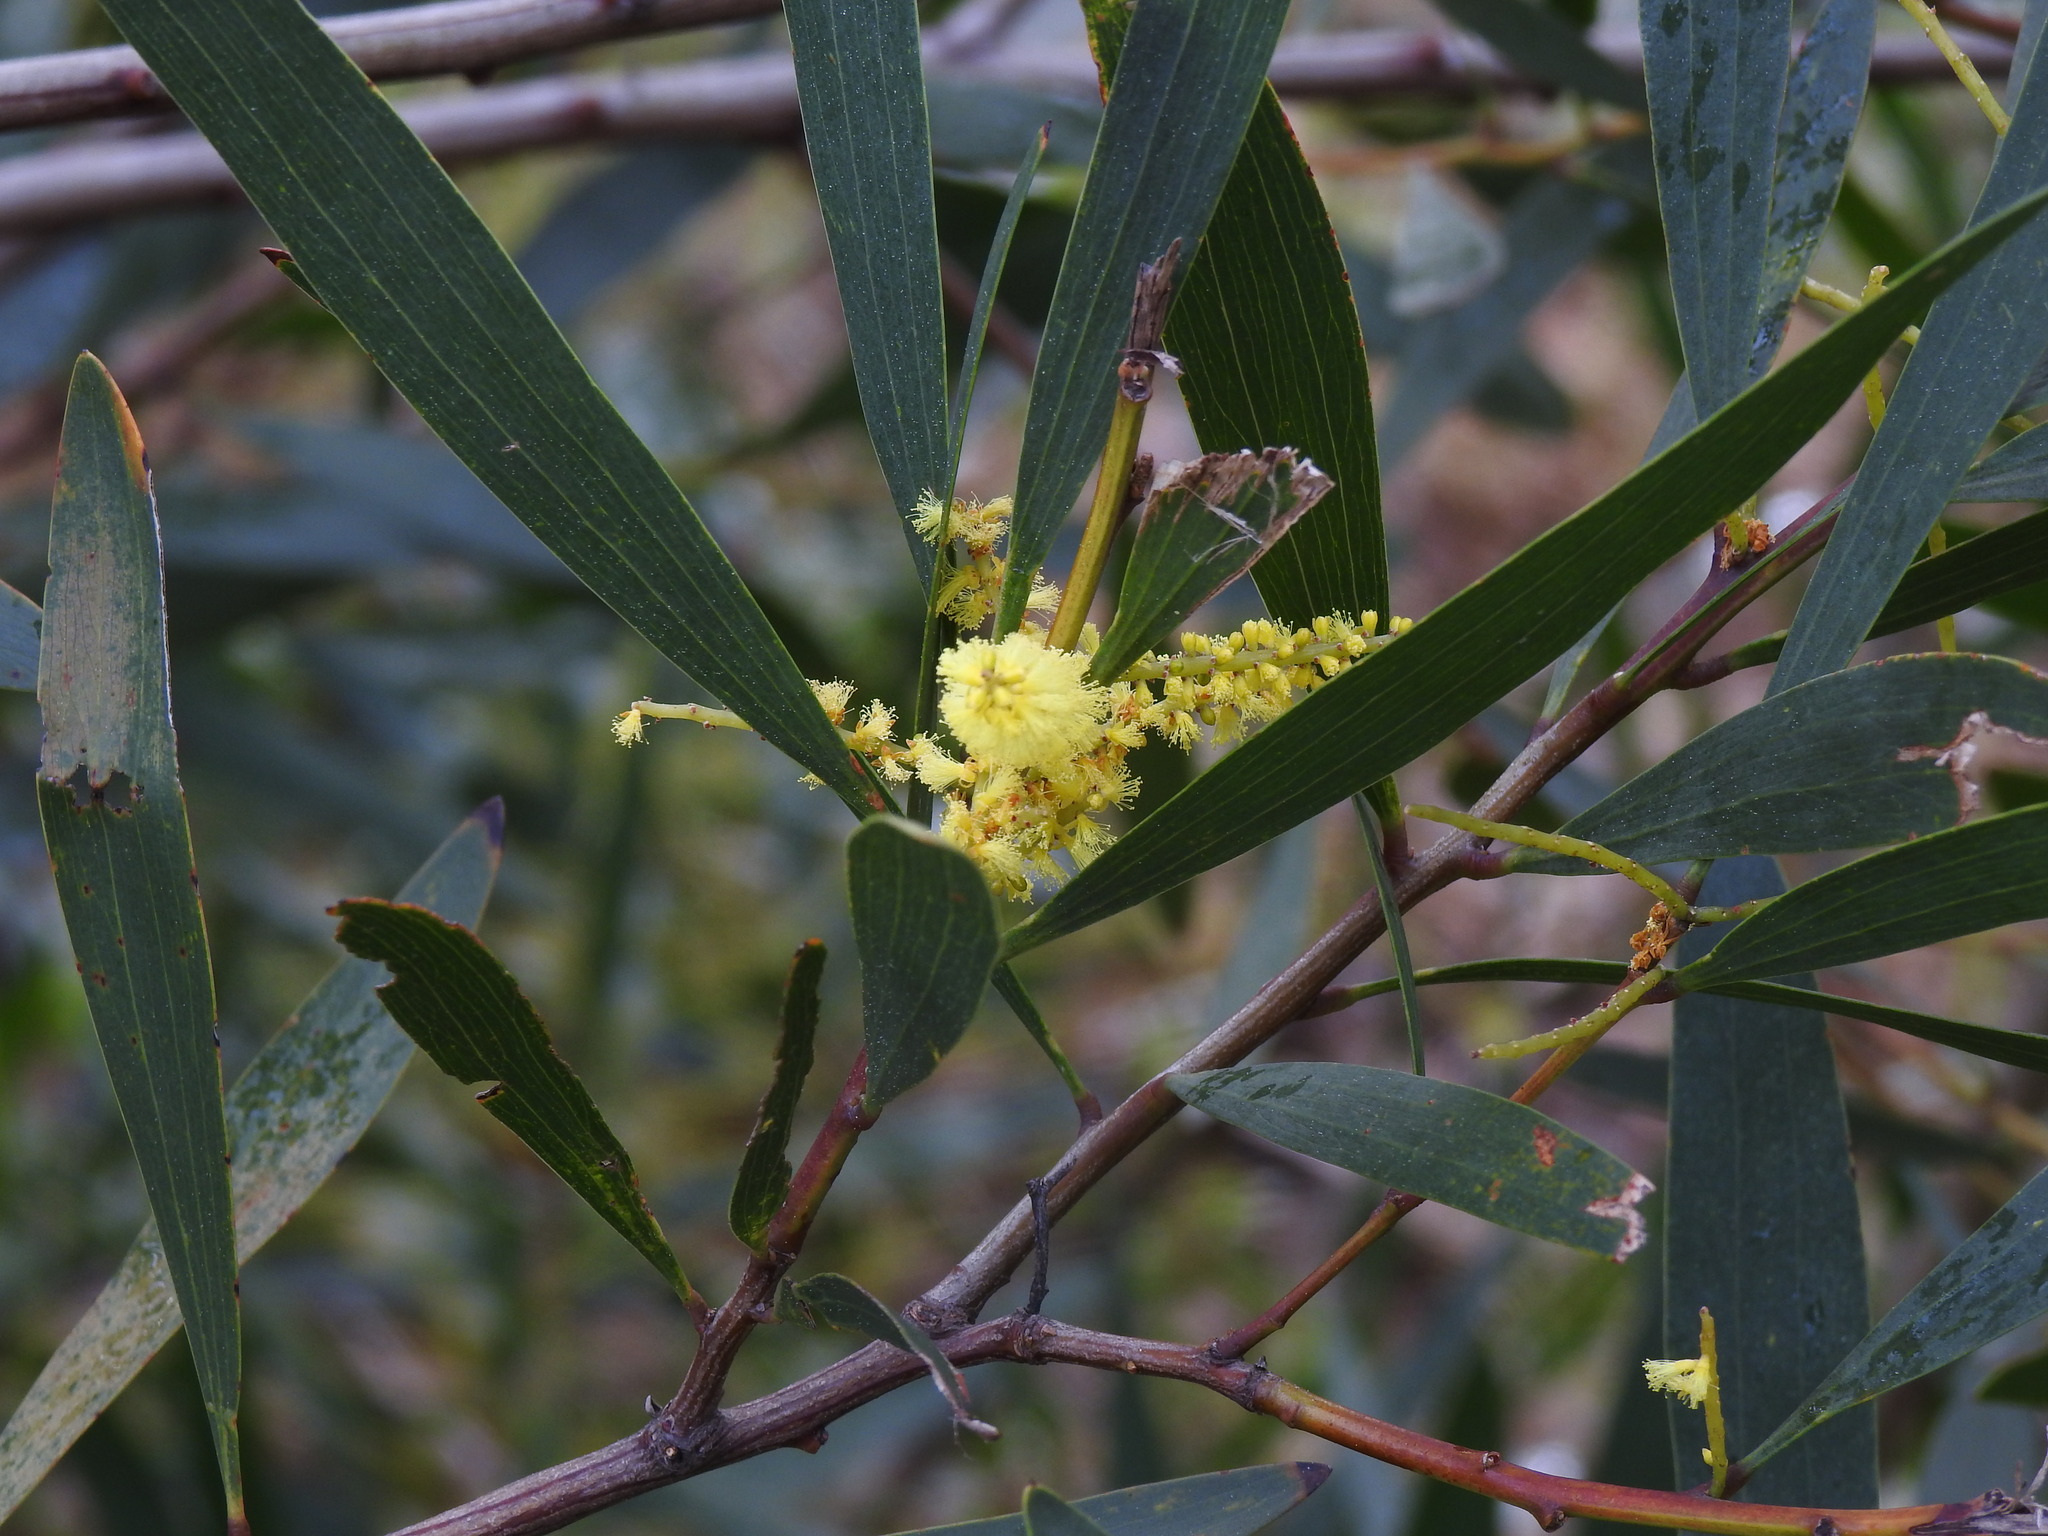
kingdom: Plantae
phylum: Tracheophyta
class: Magnoliopsida
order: Fabales
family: Fabaceae
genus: Acacia
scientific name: Acacia longifolia
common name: Sydney golden wattle
